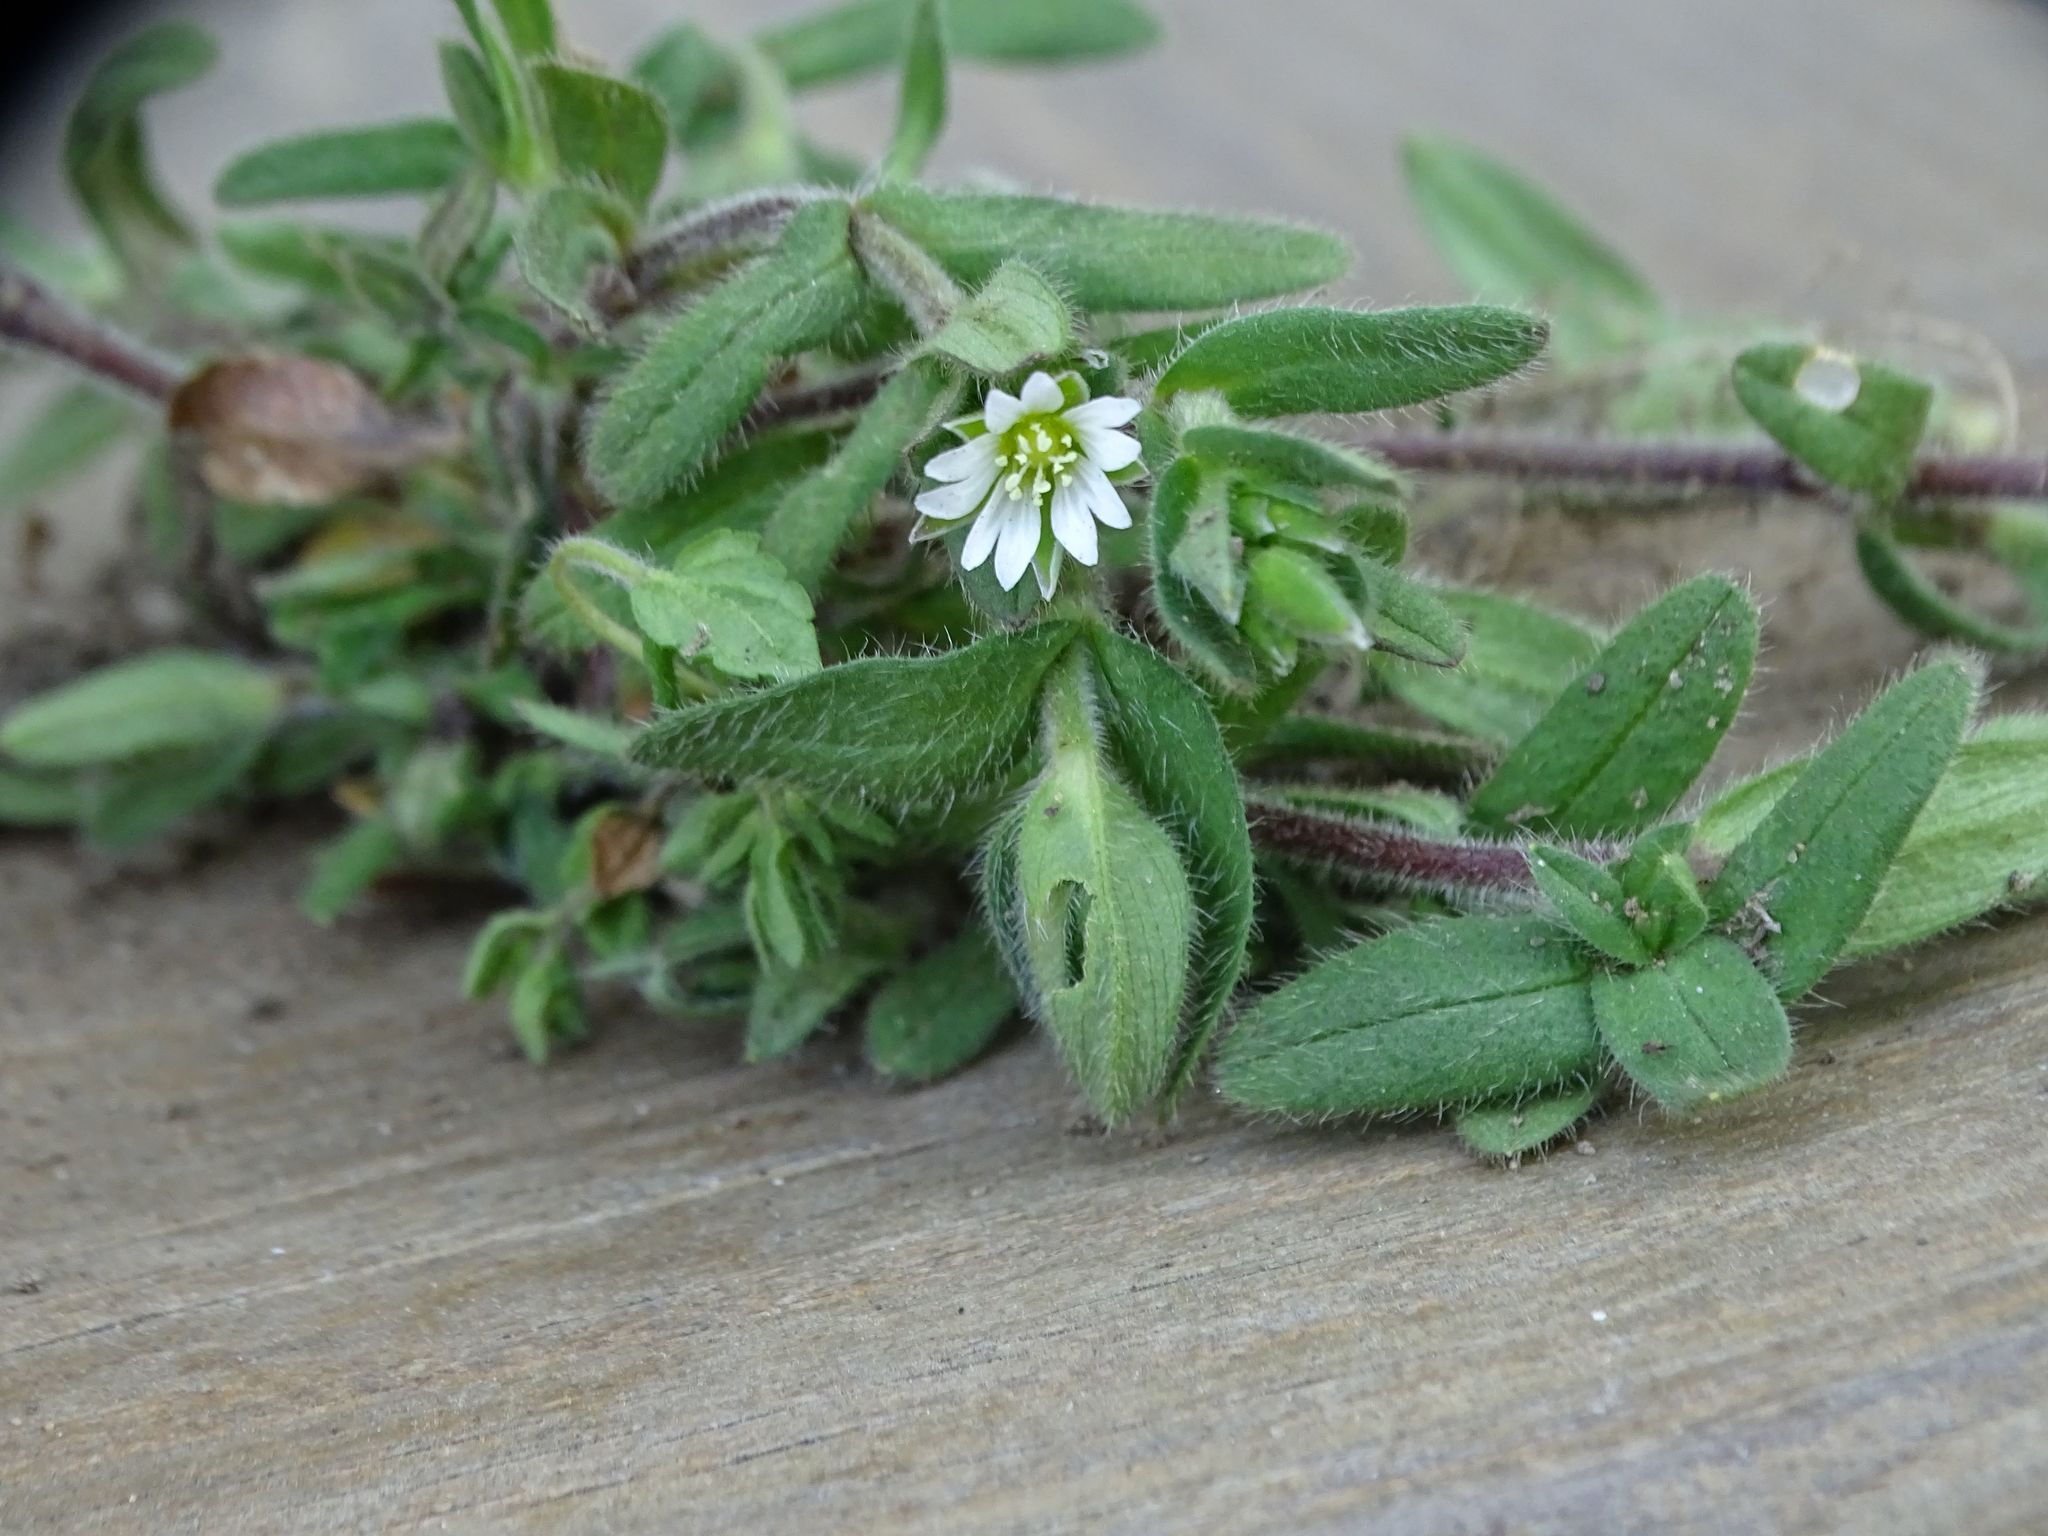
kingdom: Plantae
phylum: Tracheophyta
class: Magnoliopsida
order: Caryophyllales
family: Caryophyllaceae
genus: Cerastium
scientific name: Cerastium fontanum
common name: Common mouse-ear
